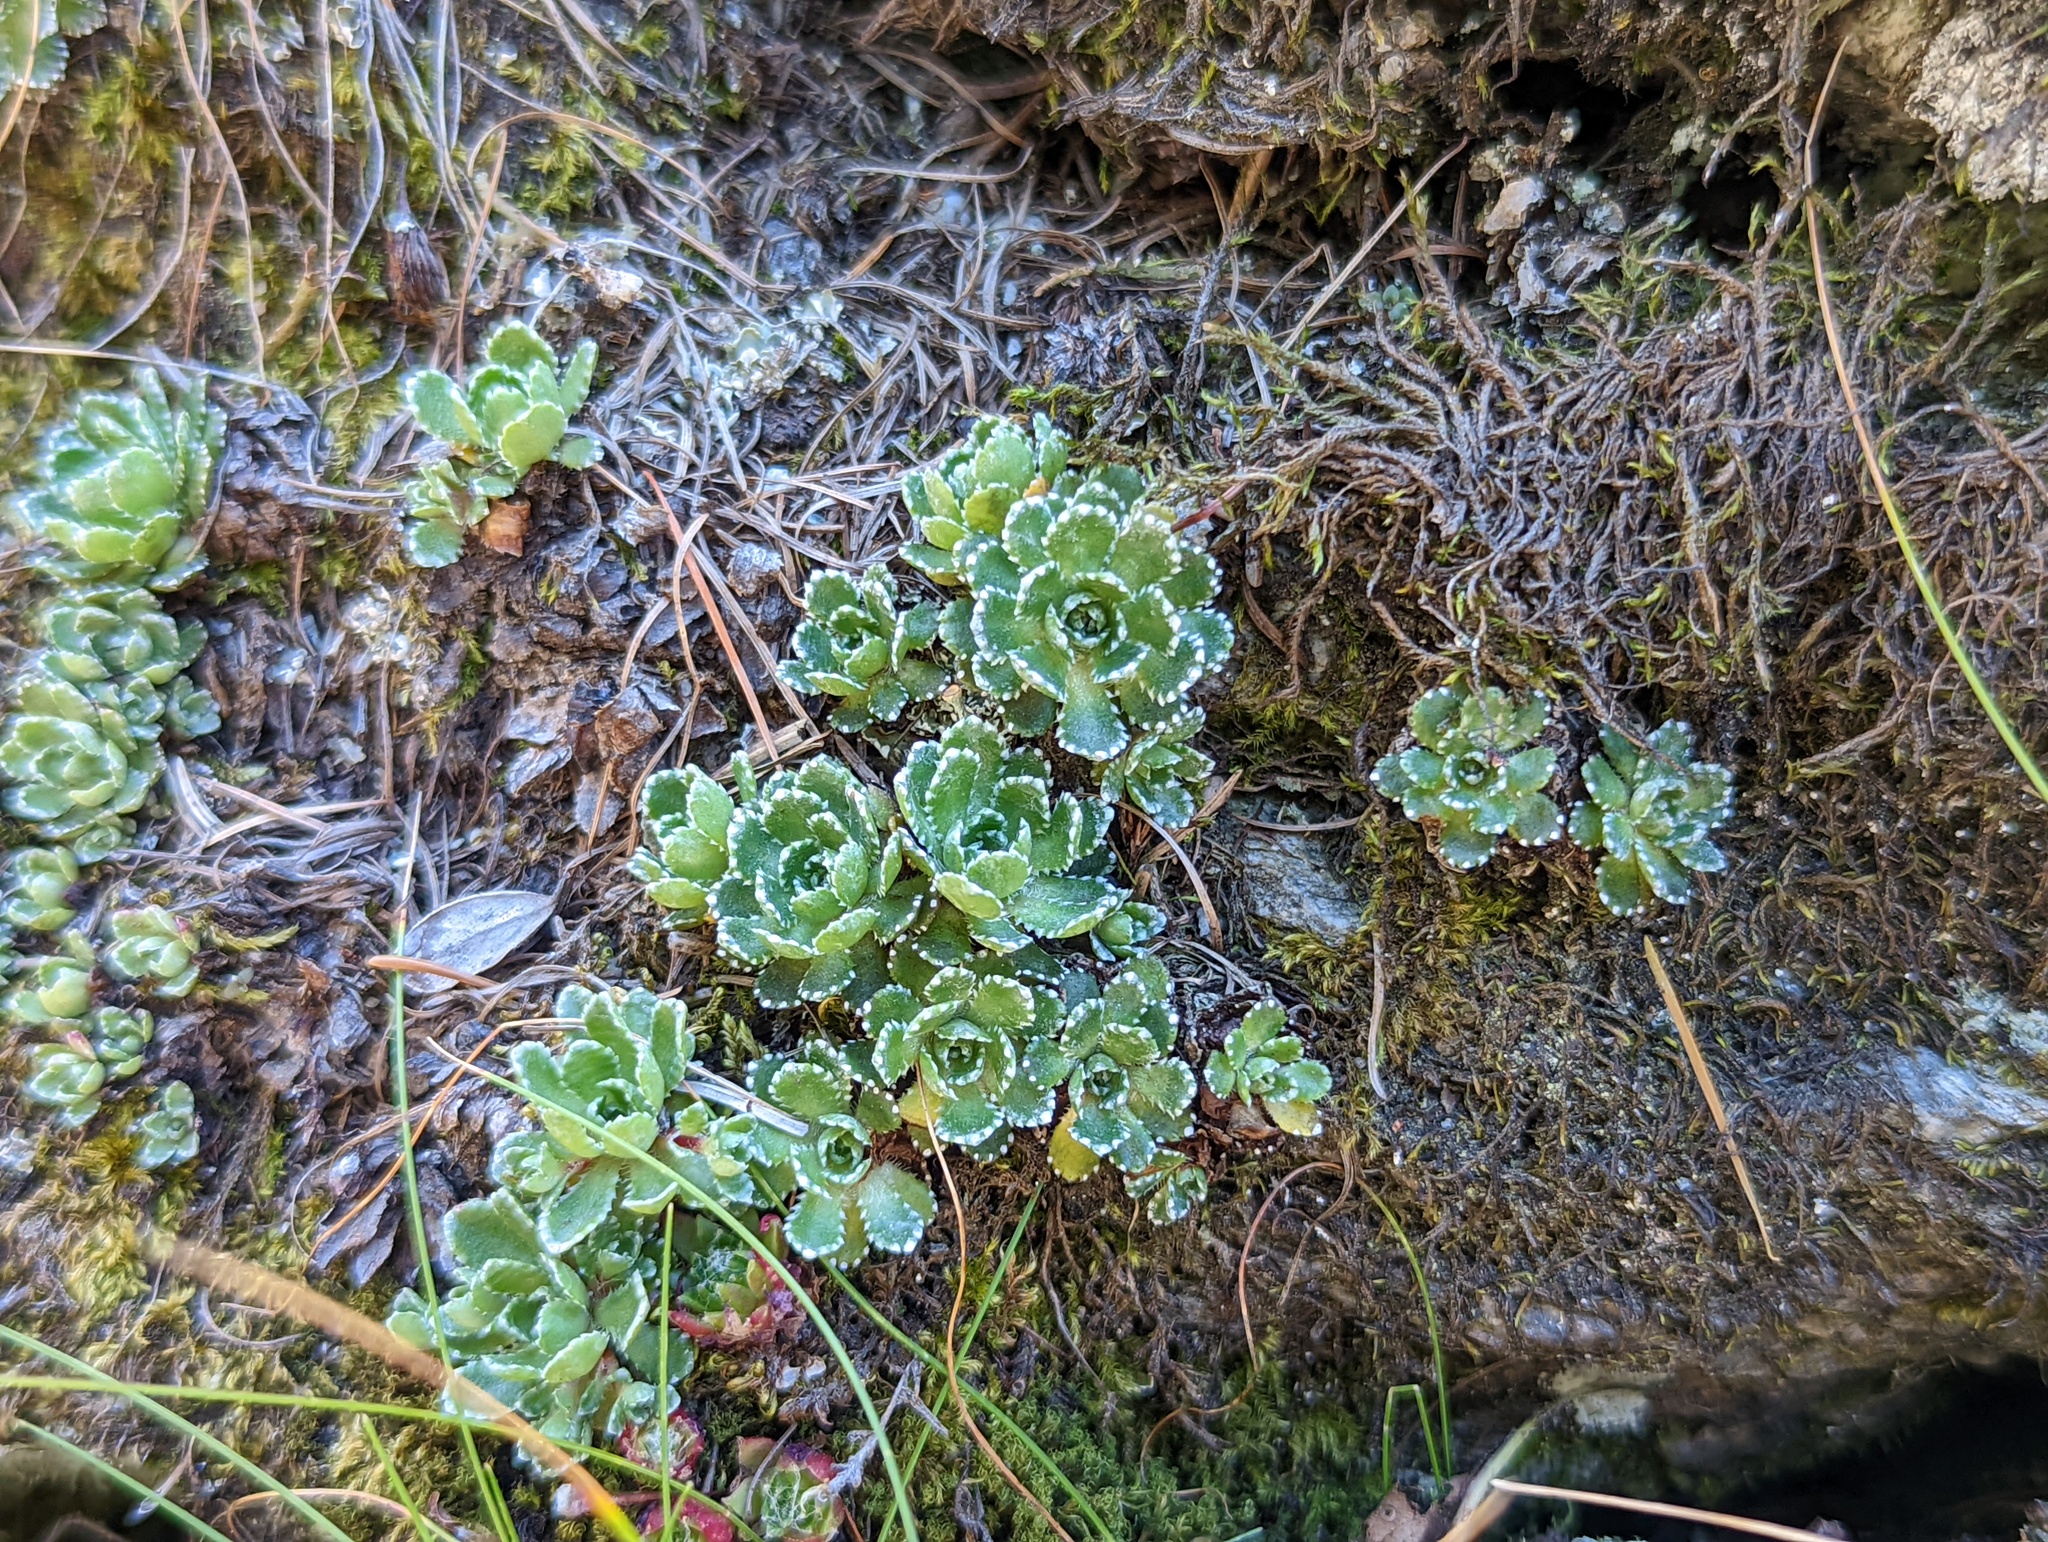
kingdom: Plantae
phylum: Tracheophyta
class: Magnoliopsida
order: Saxifragales
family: Saxifragaceae
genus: Saxifraga
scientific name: Saxifraga paniculata
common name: Livelong saxifrage
